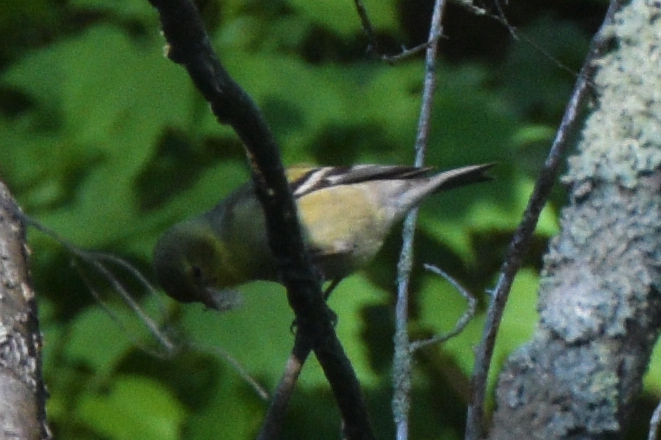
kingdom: Animalia
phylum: Chordata
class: Aves
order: Passeriformes
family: Fringillidae
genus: Spinus
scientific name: Spinus tristis
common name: American goldfinch
